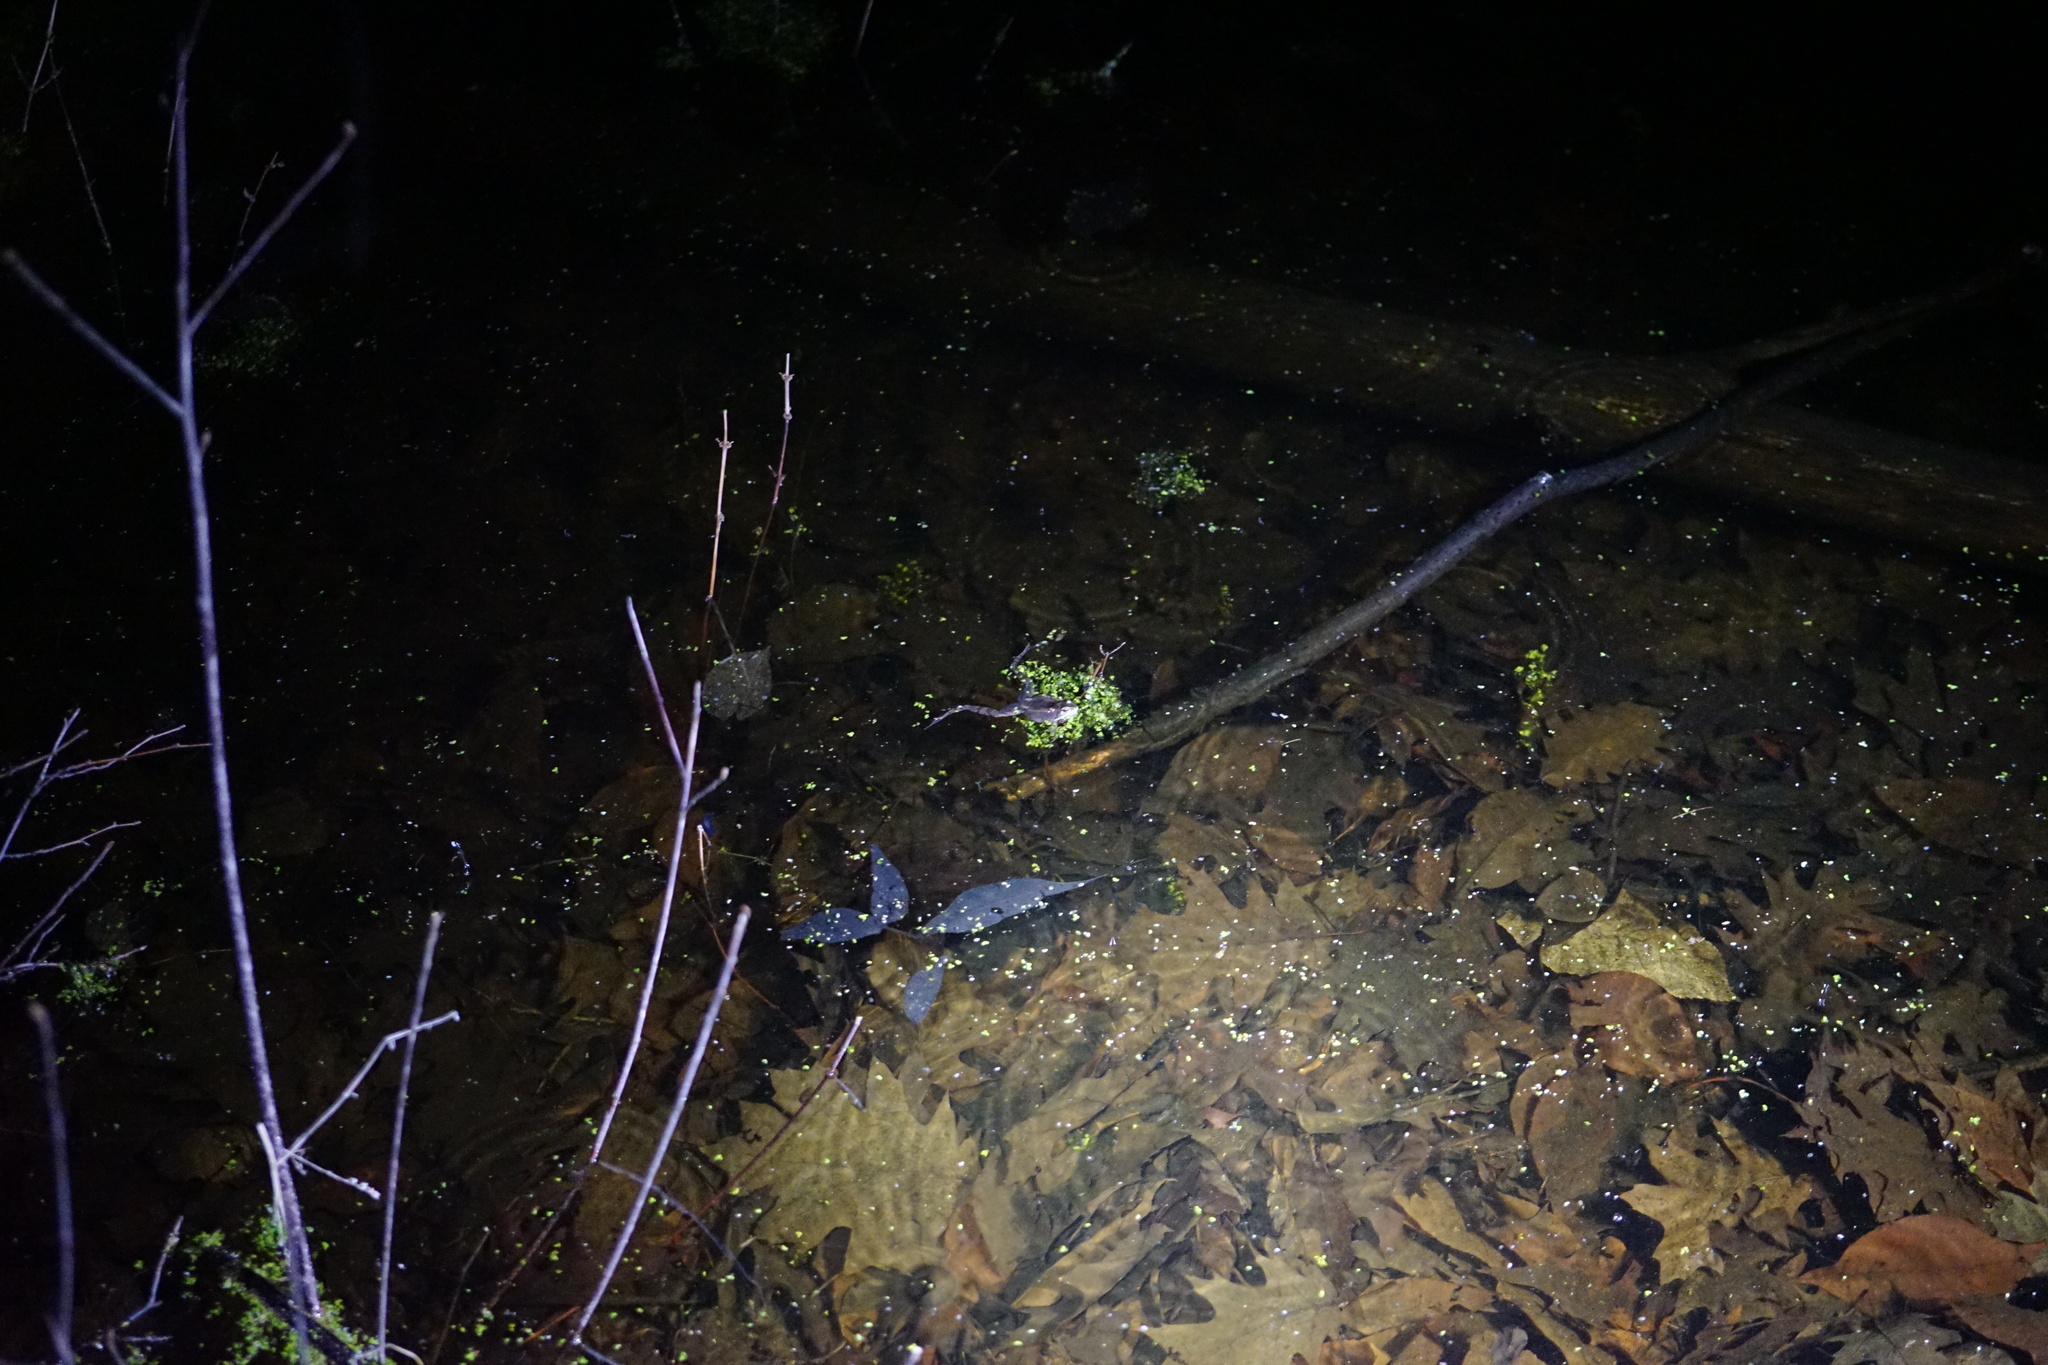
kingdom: Animalia
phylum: Chordata
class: Amphibia
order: Anura
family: Ranidae
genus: Lithobates
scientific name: Lithobates sylvaticus
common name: Wood frog
